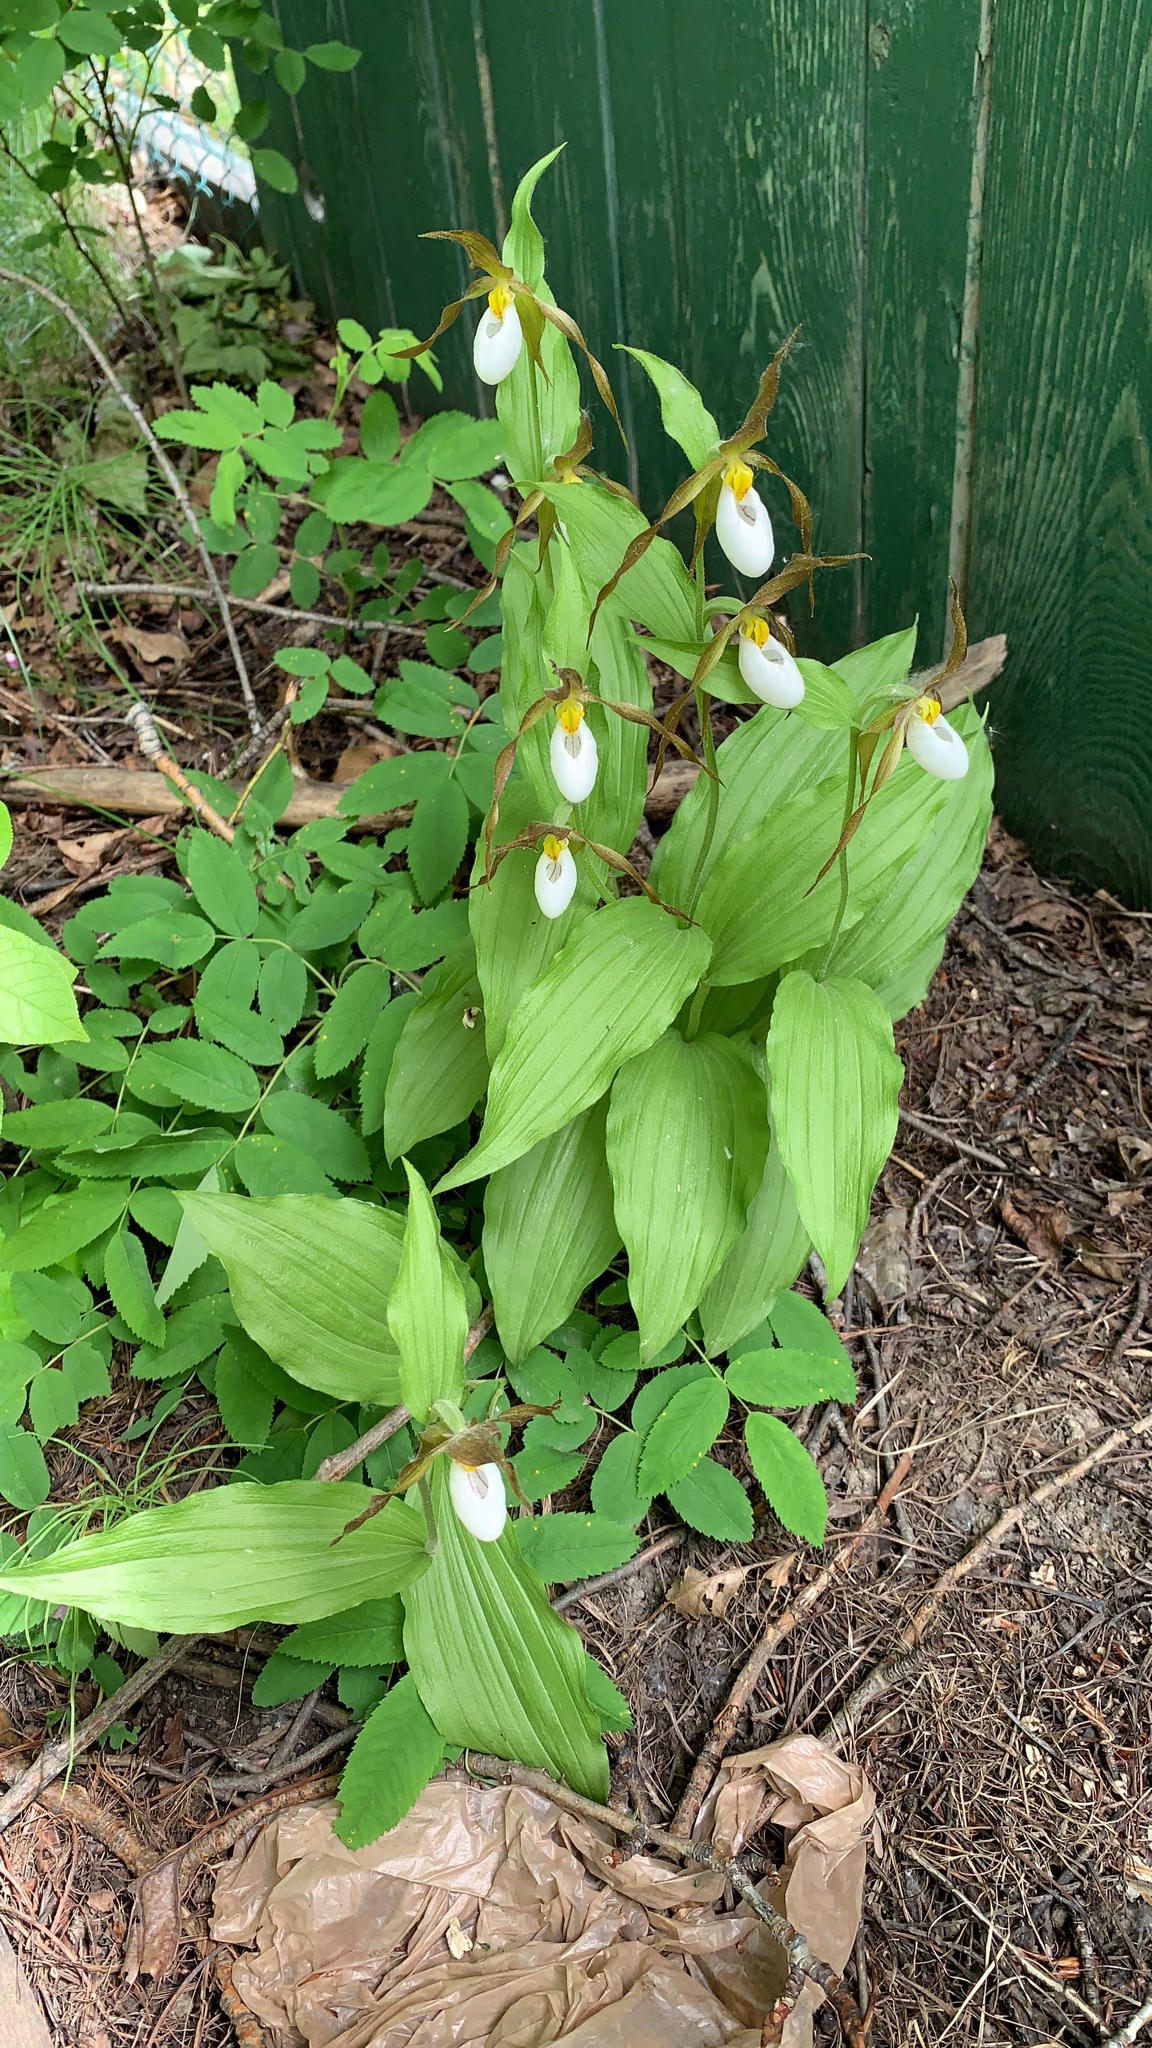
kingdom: Plantae
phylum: Tracheophyta
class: Liliopsida
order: Asparagales
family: Orchidaceae
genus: Cypripedium
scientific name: Cypripedium montanum
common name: Mountain lady's-slipper
